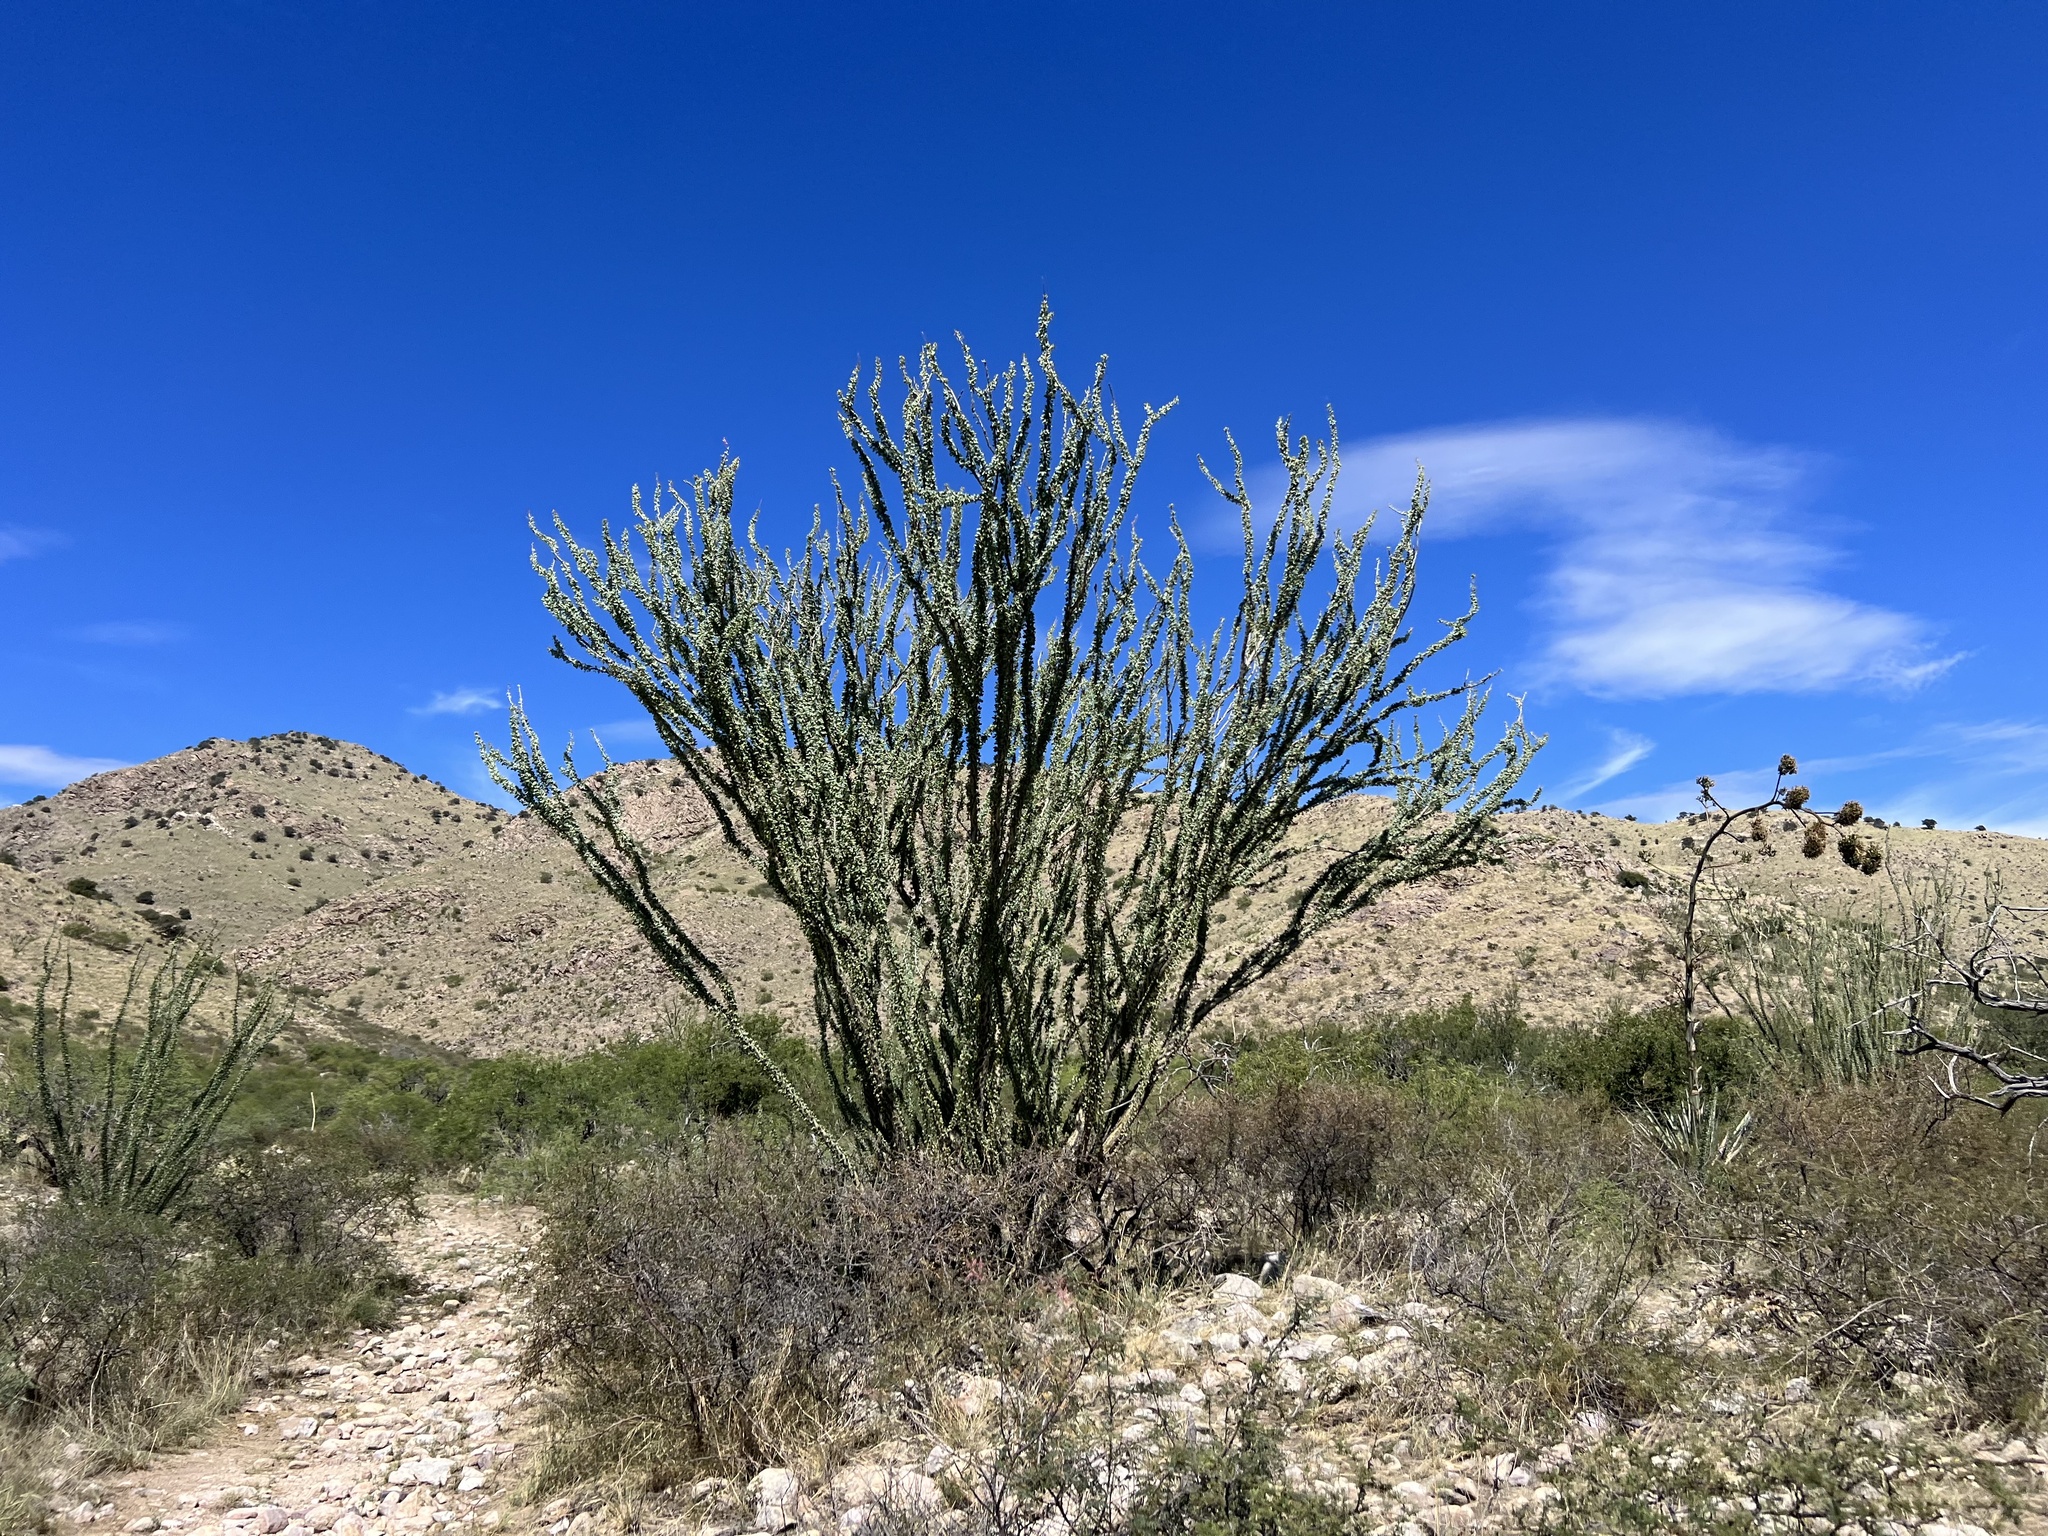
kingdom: Plantae
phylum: Tracheophyta
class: Magnoliopsida
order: Ericales
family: Fouquieriaceae
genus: Fouquieria
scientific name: Fouquieria splendens
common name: Vine-cactus
